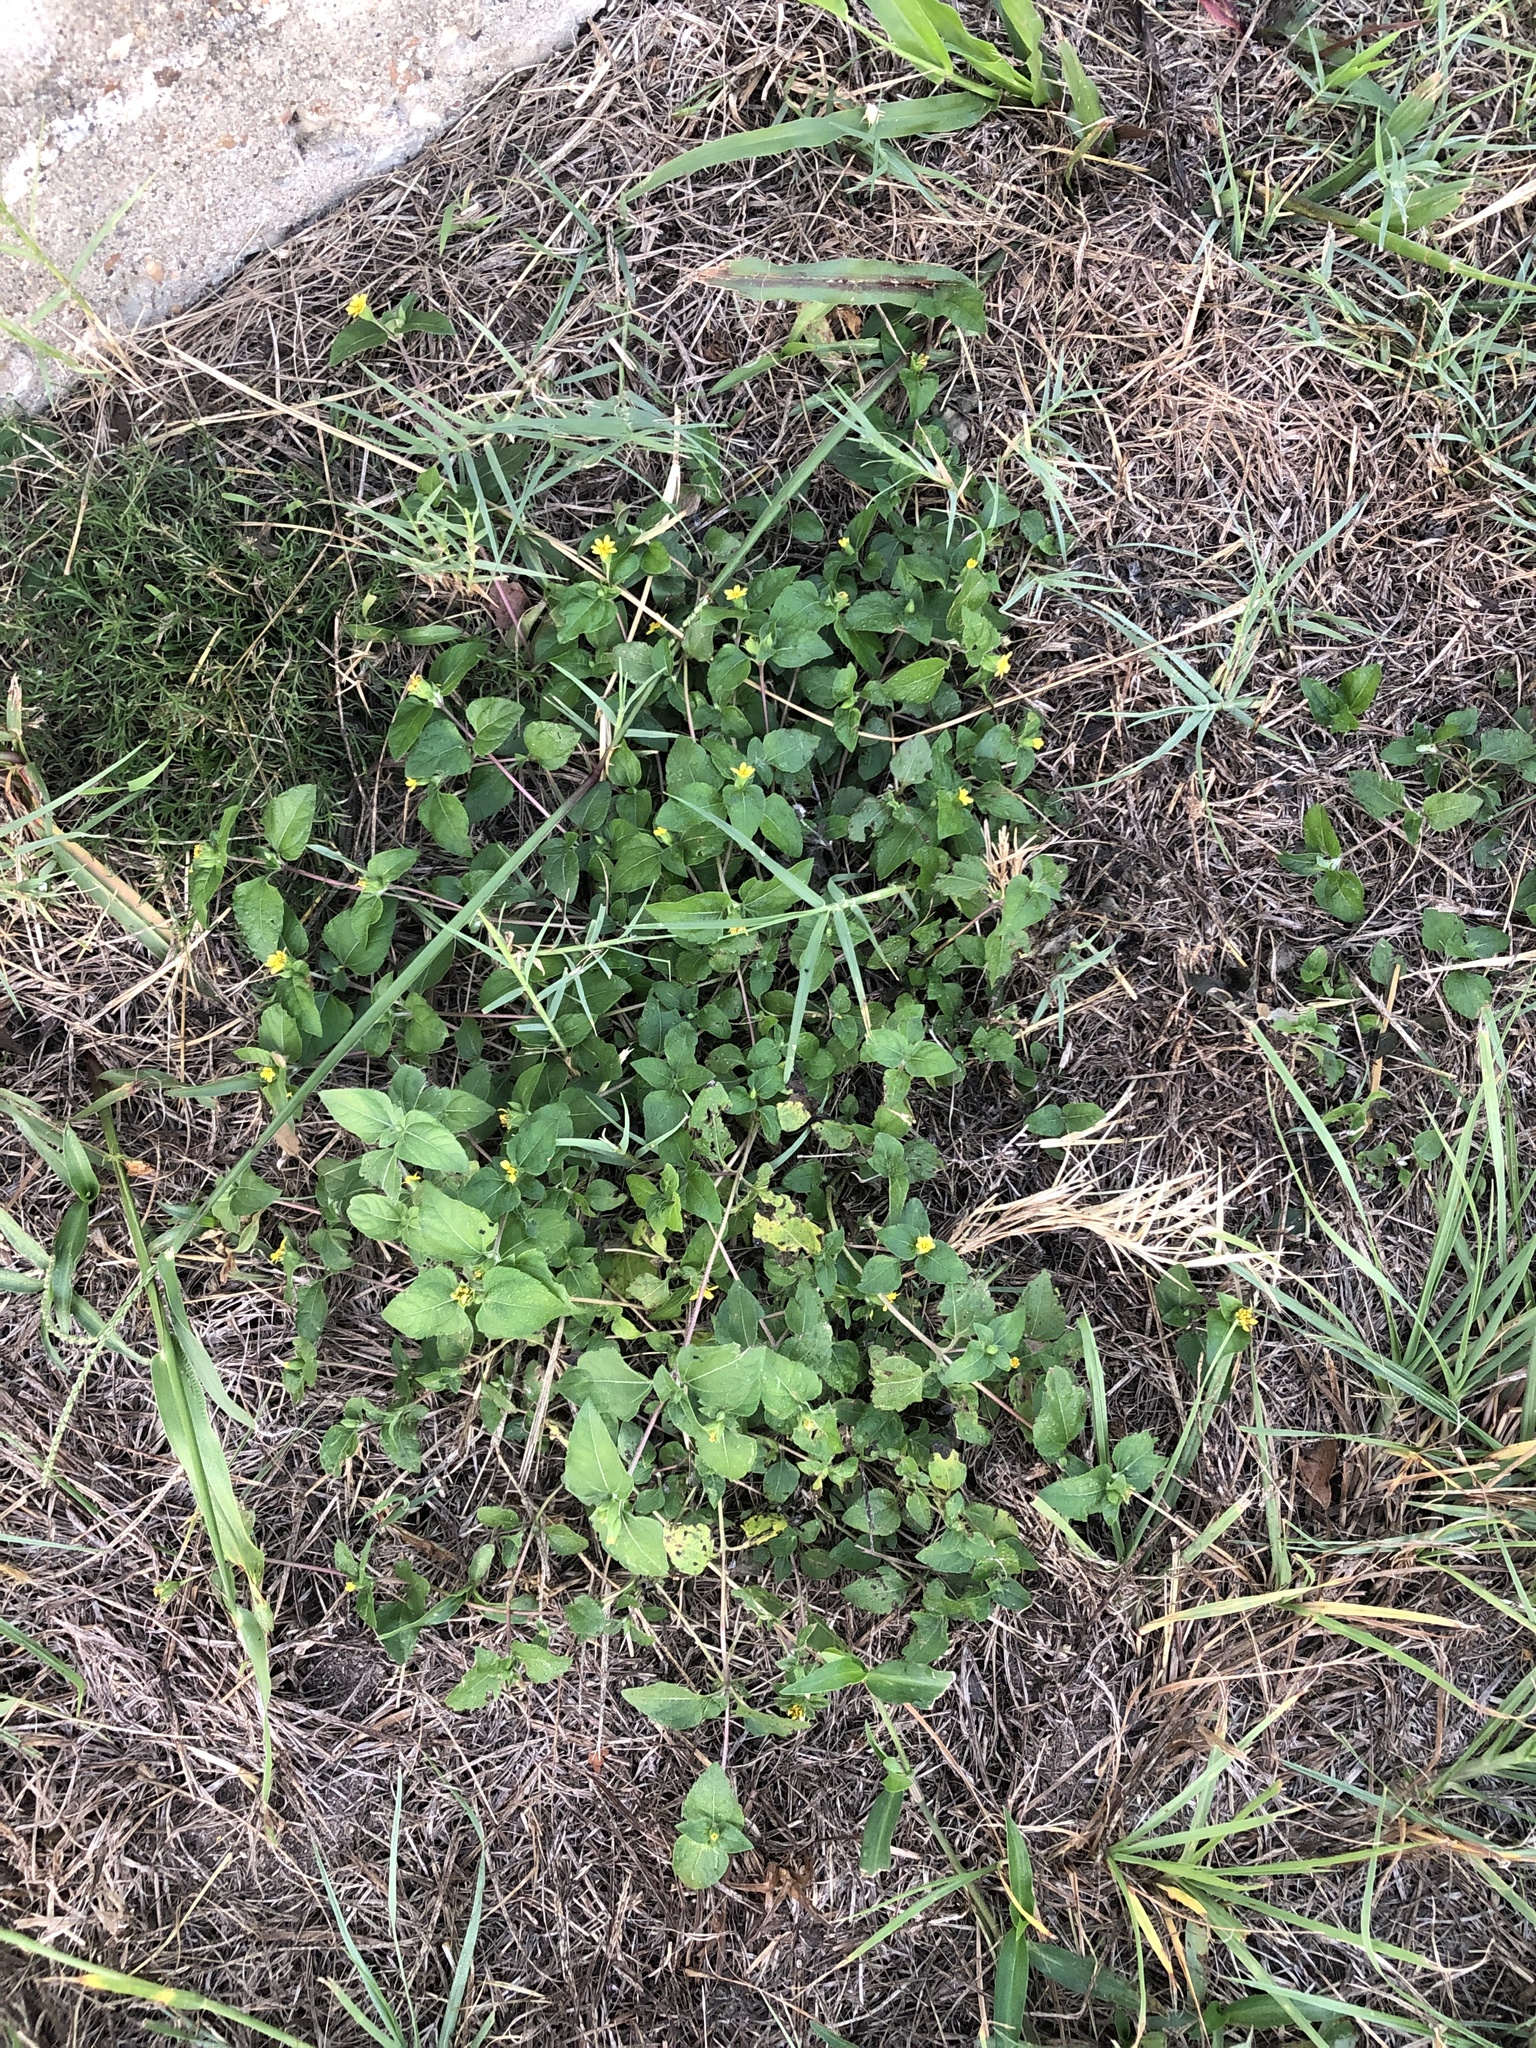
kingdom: Plantae
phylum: Tracheophyta
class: Magnoliopsida
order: Asterales
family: Asteraceae
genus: Calyptocarpus
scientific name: Calyptocarpus vialis
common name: Straggler daisy
